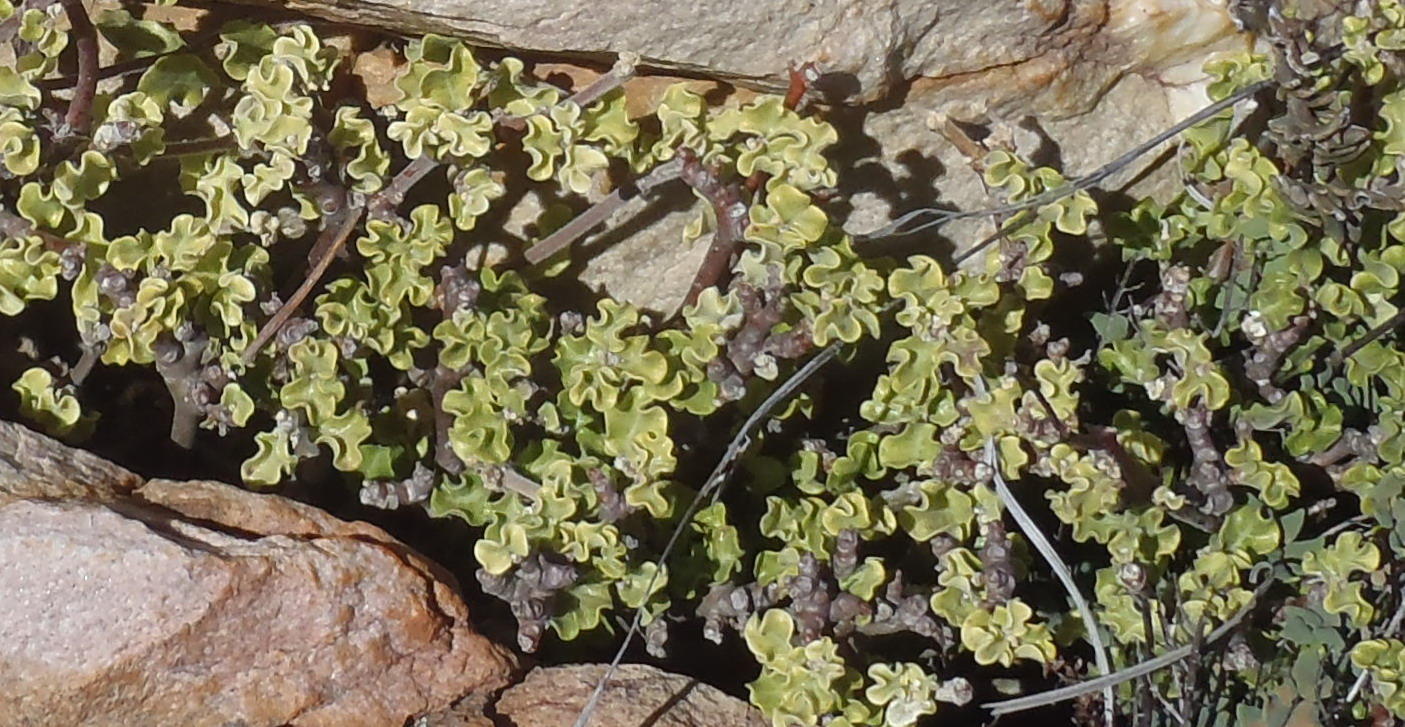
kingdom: Plantae
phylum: Tracheophyta
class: Magnoliopsida
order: Gentianales
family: Apocynaceae
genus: Fockea
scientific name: Fockea capensis
